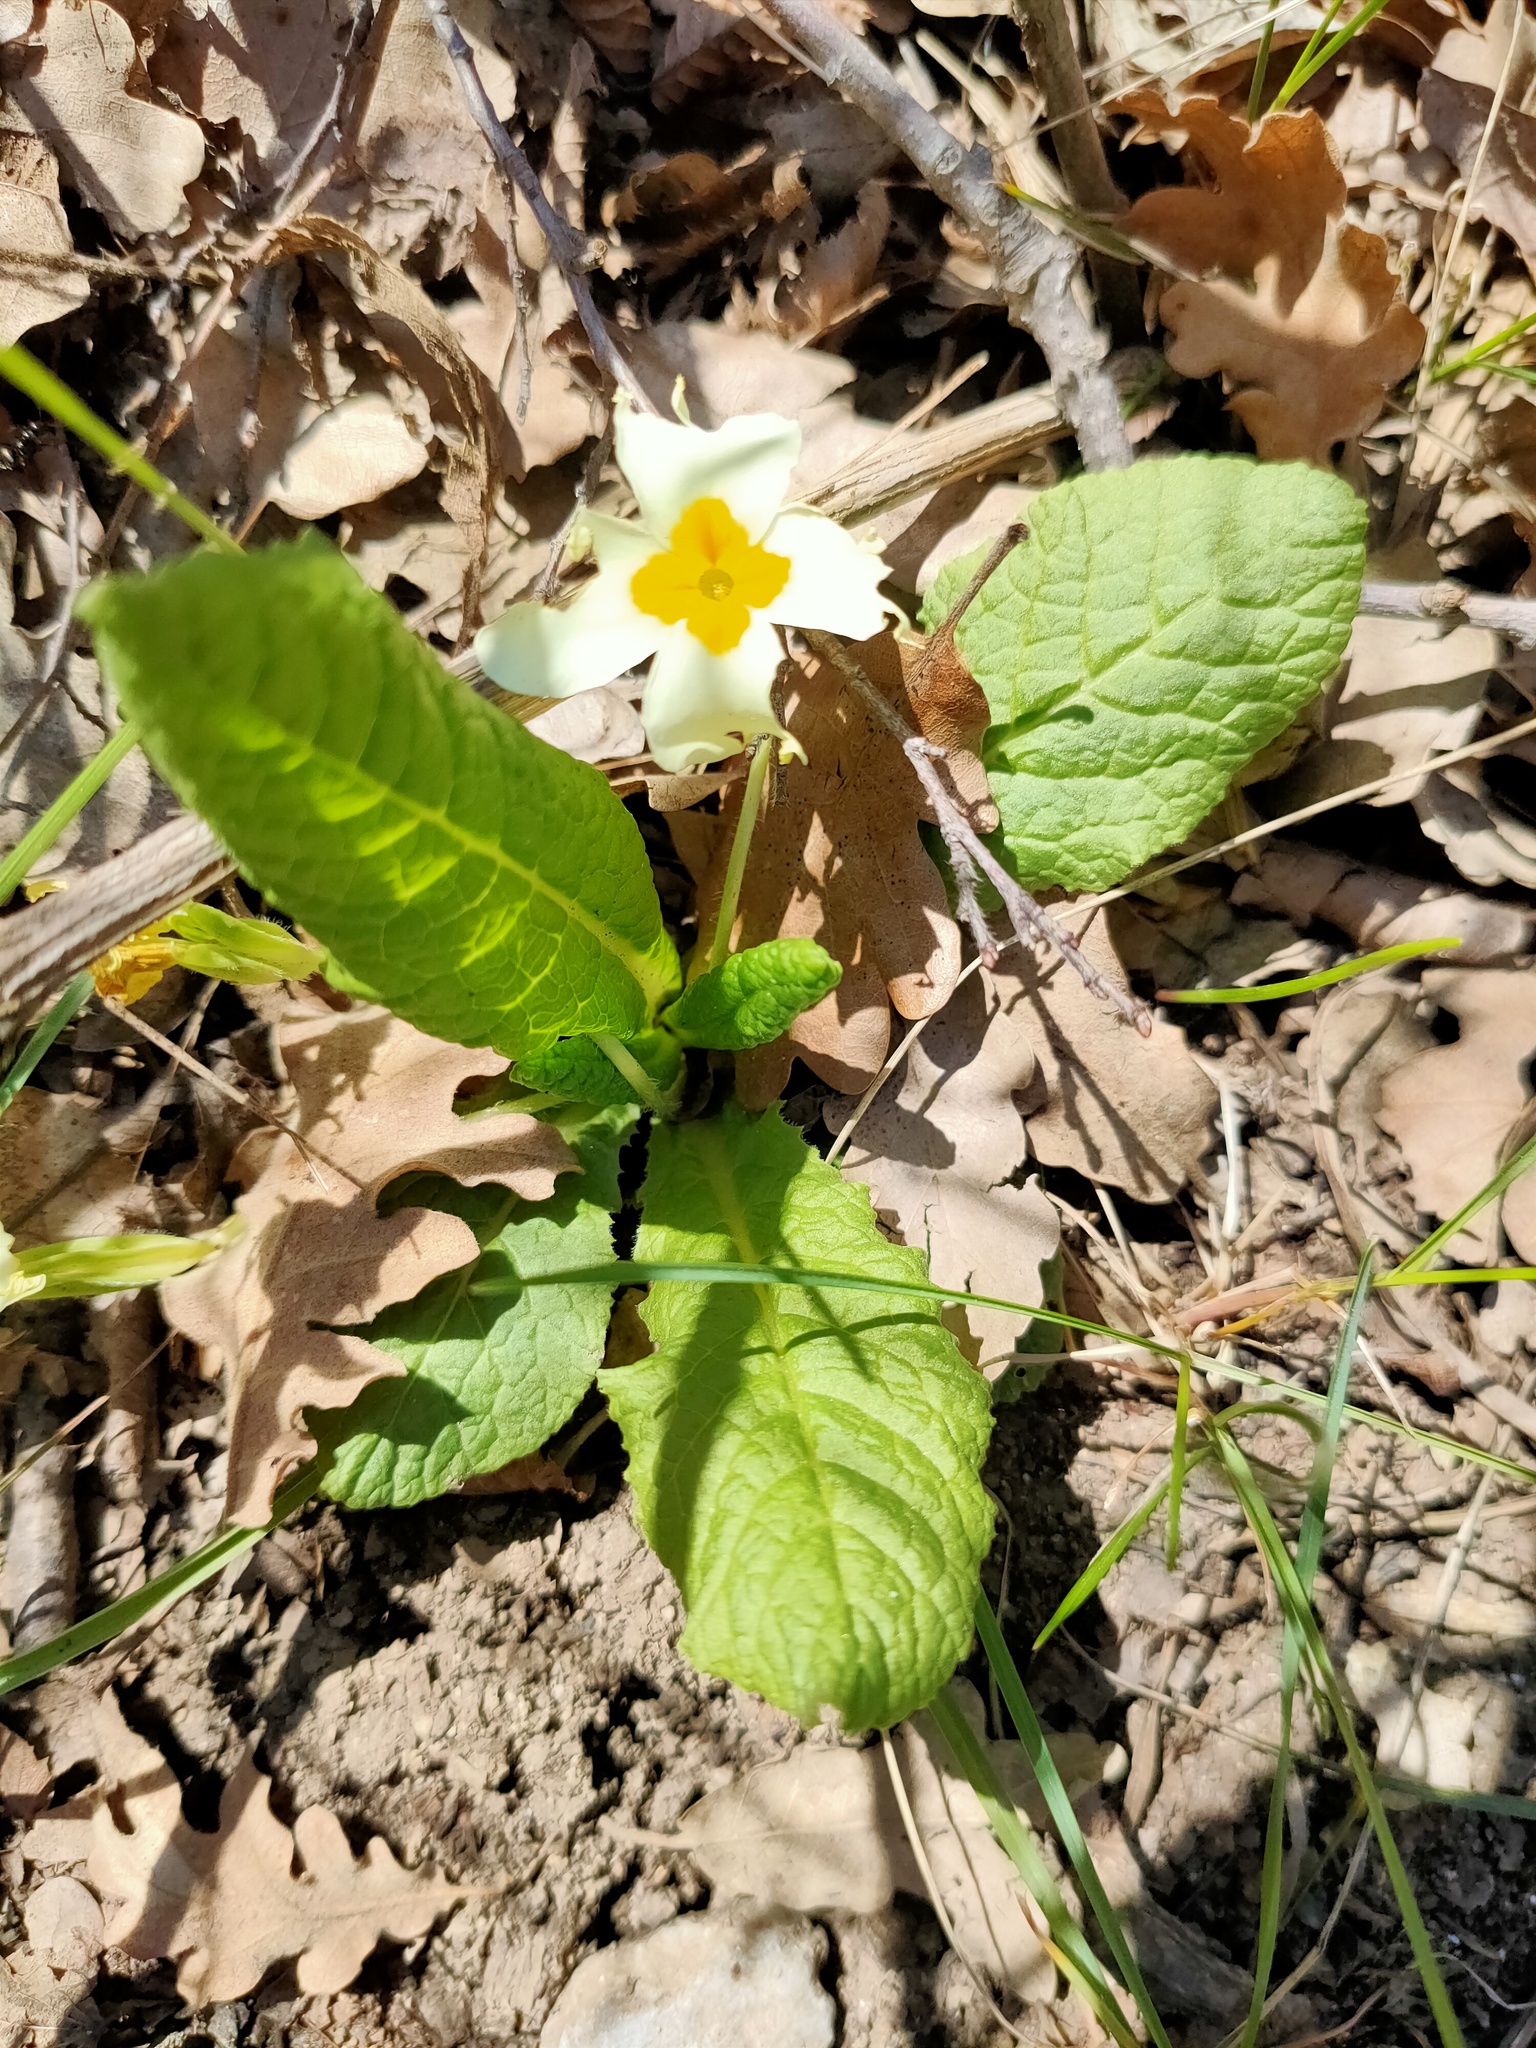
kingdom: Plantae
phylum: Tracheophyta
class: Magnoliopsida
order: Ericales
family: Primulaceae
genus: Primula
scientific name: Primula vulgaris
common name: Primrose
